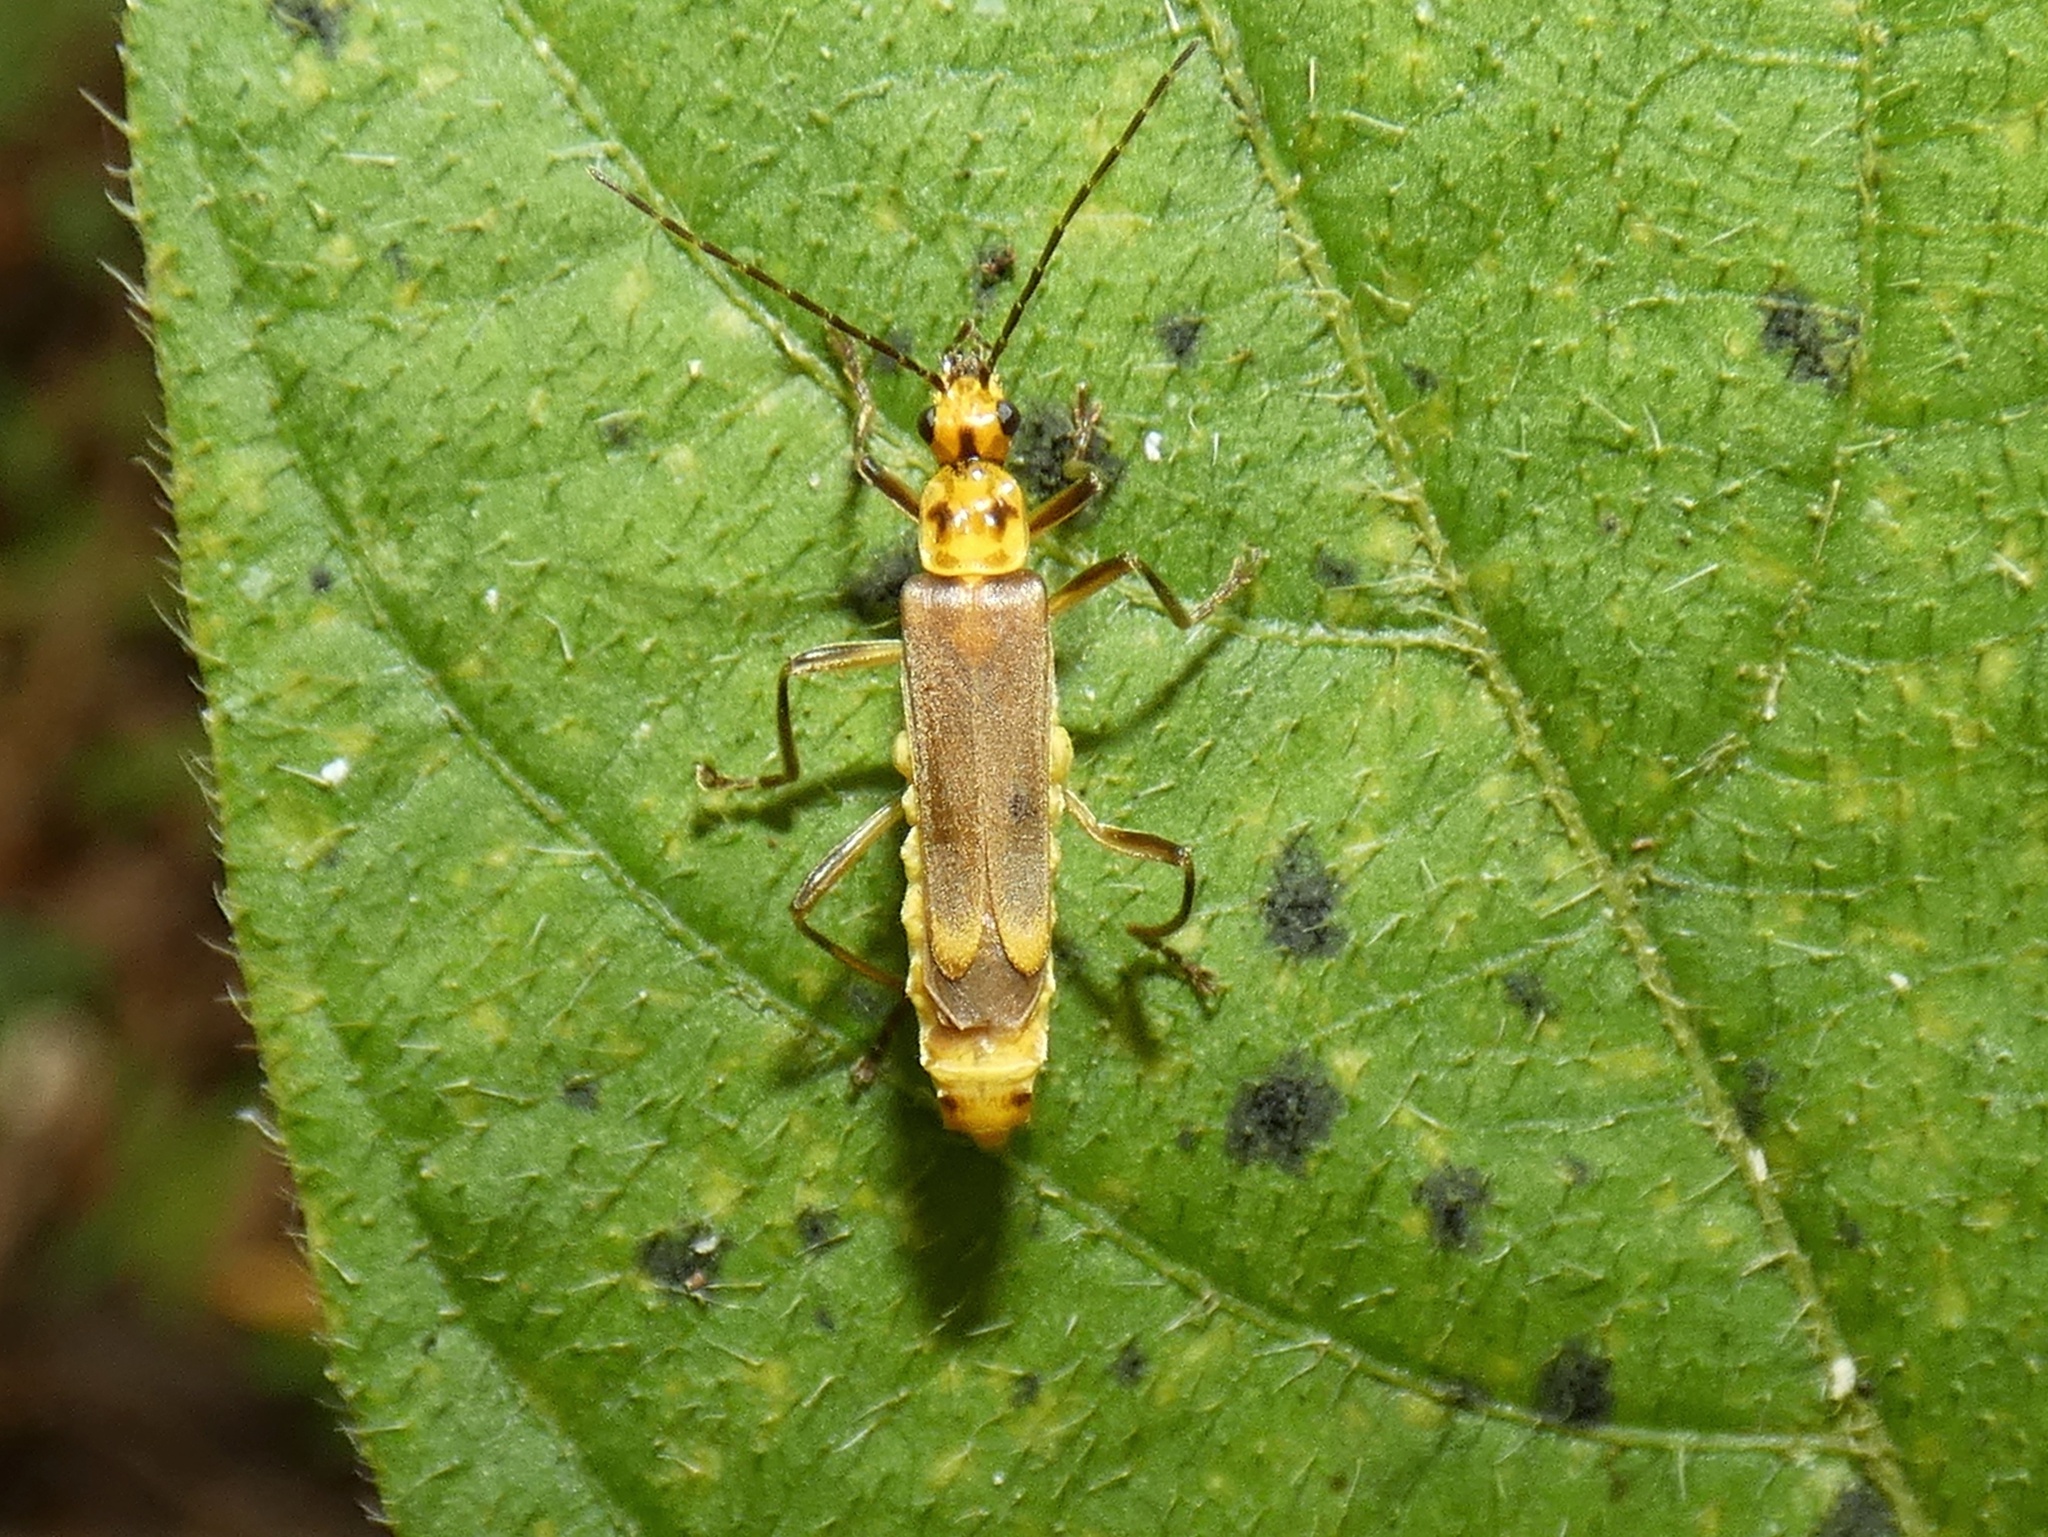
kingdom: Animalia
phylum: Arthropoda
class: Insecta
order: Coleoptera
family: Cantharidae
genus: Chauliognathus
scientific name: Chauliognathus
